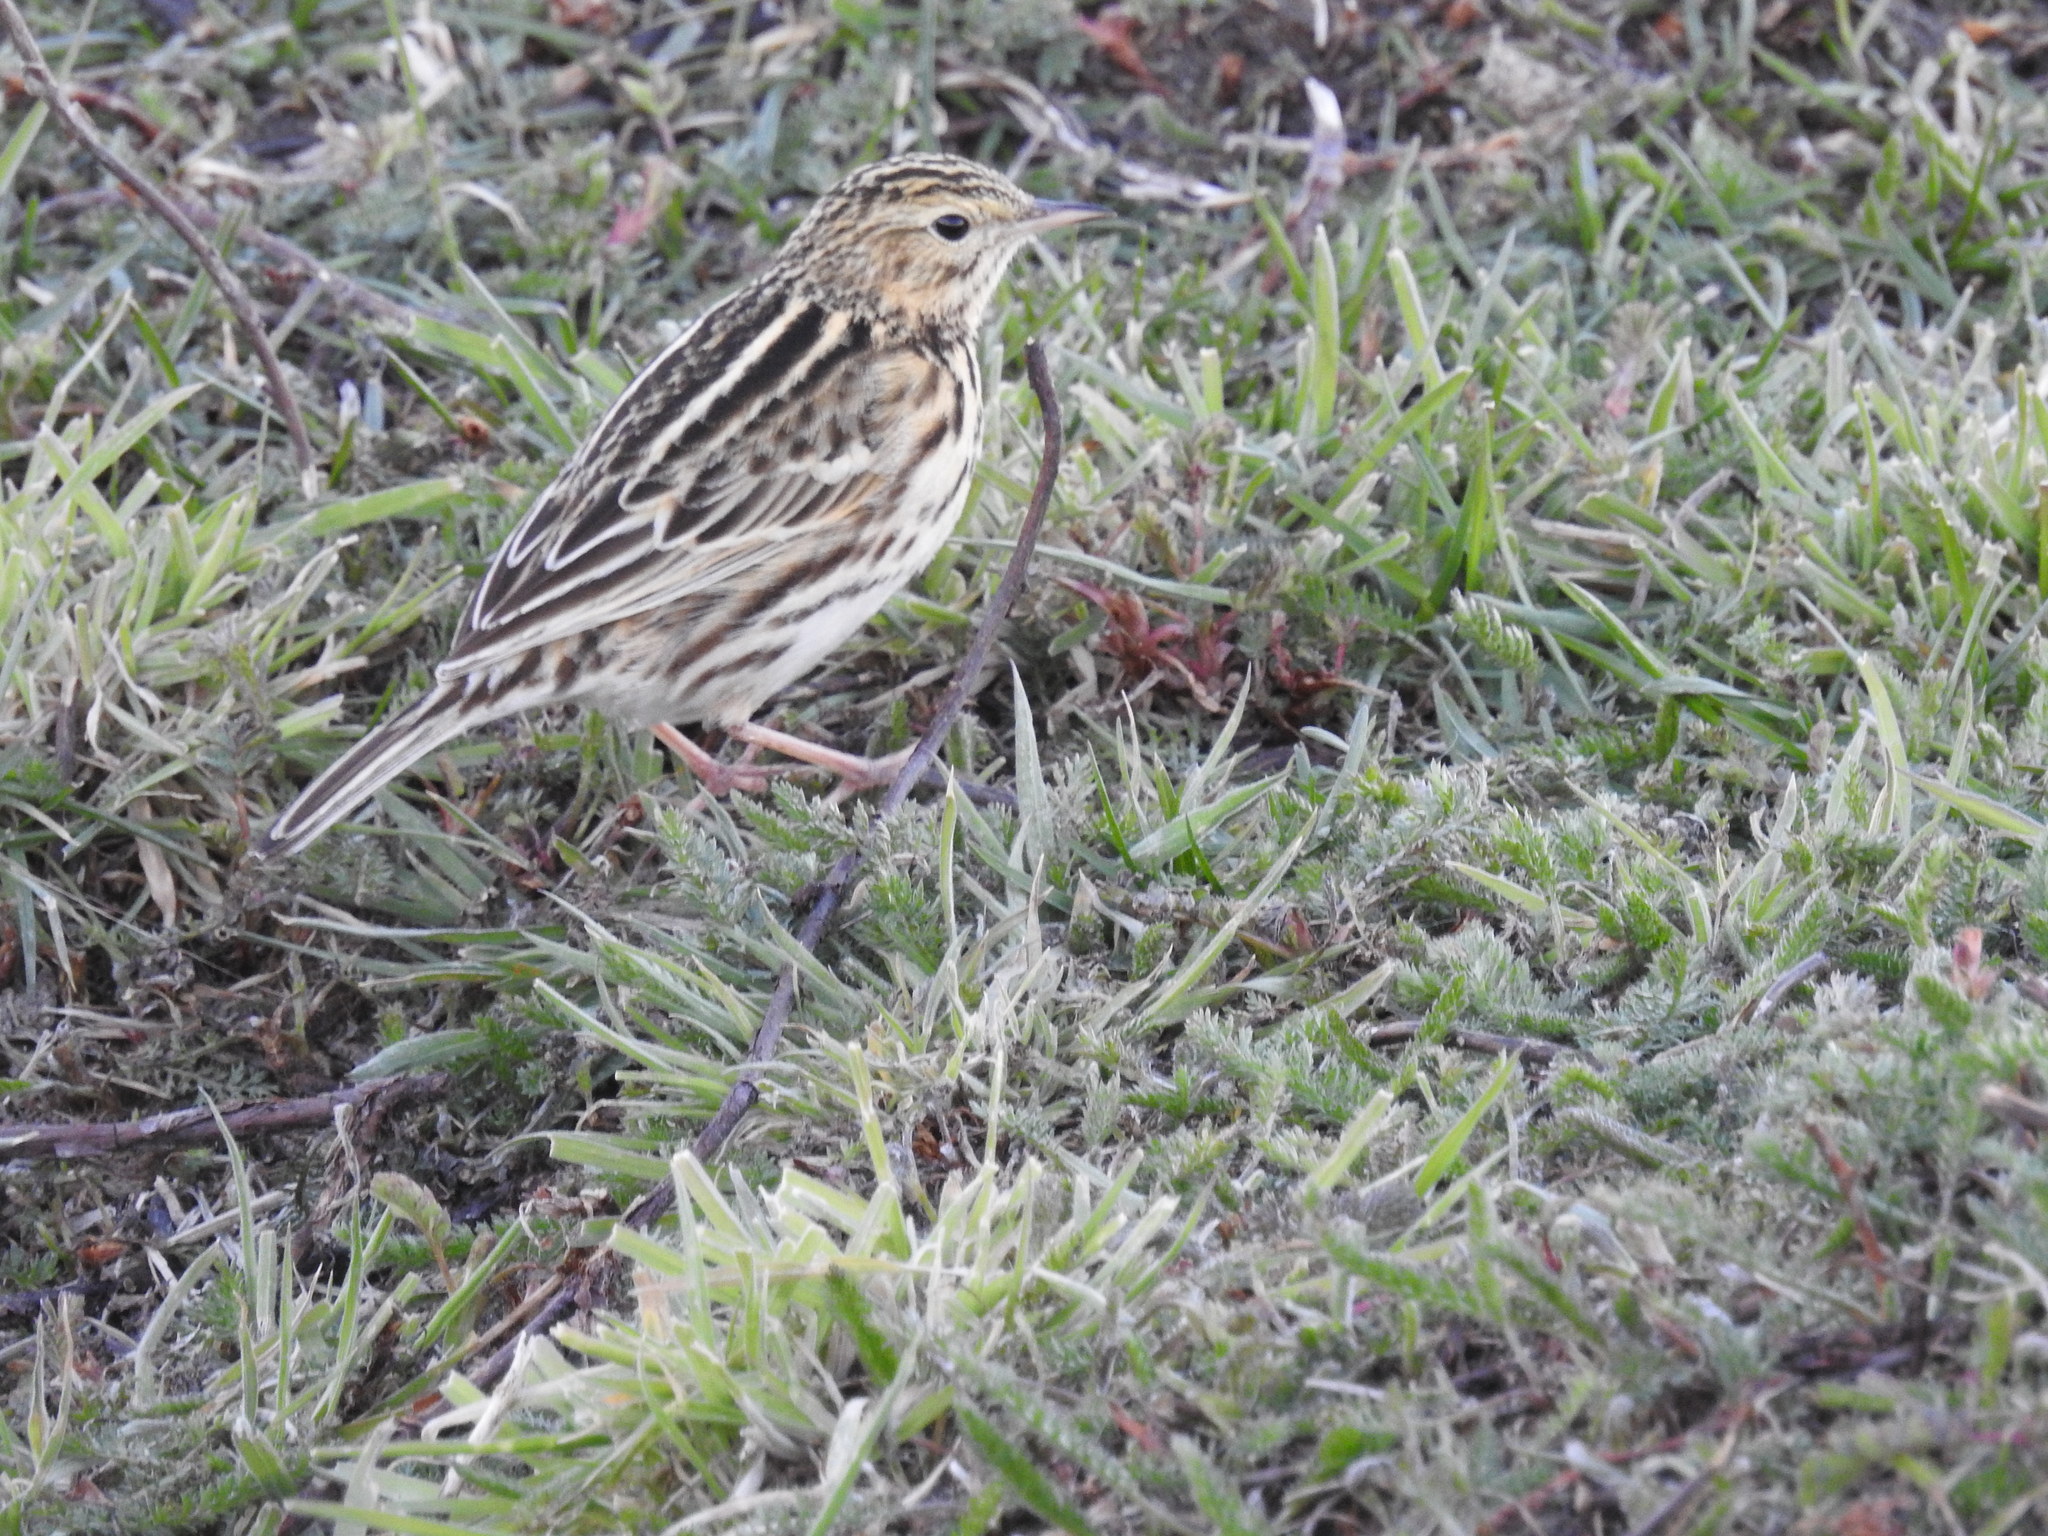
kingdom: Animalia
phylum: Chordata
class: Aves
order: Passeriformes
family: Motacillidae
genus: Anthus
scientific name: Anthus correndera
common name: Correndera pipit
